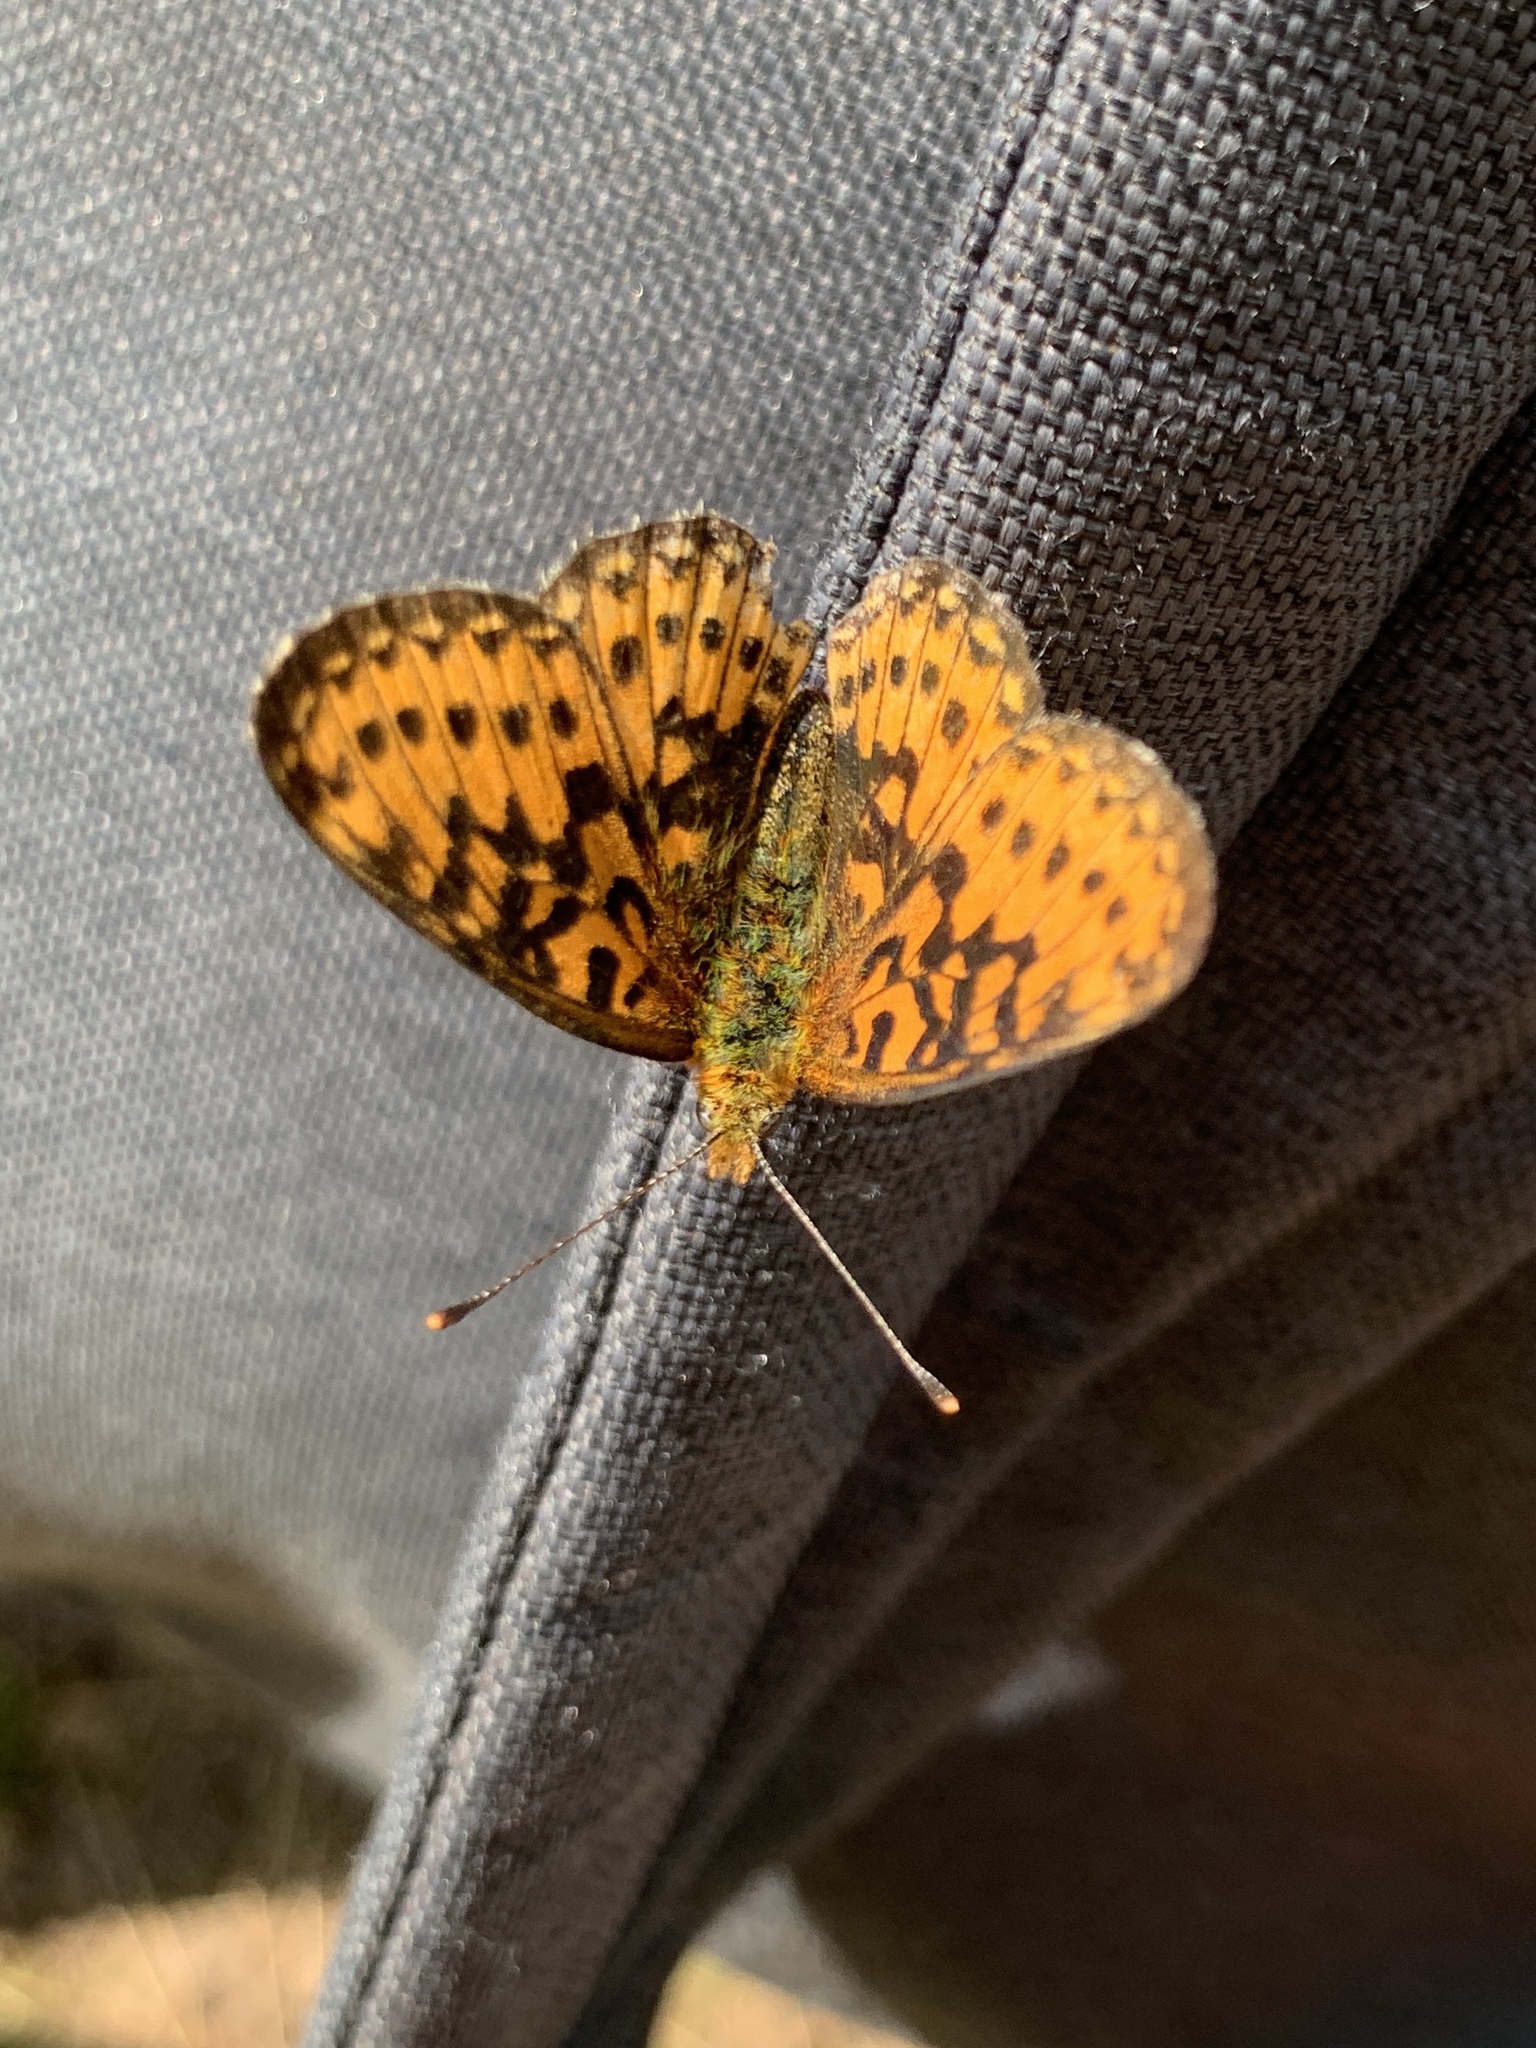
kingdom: Animalia
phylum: Arthropoda
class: Insecta
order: Lepidoptera
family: Nymphalidae
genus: Clossiana
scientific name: Clossiana euphrosyne
